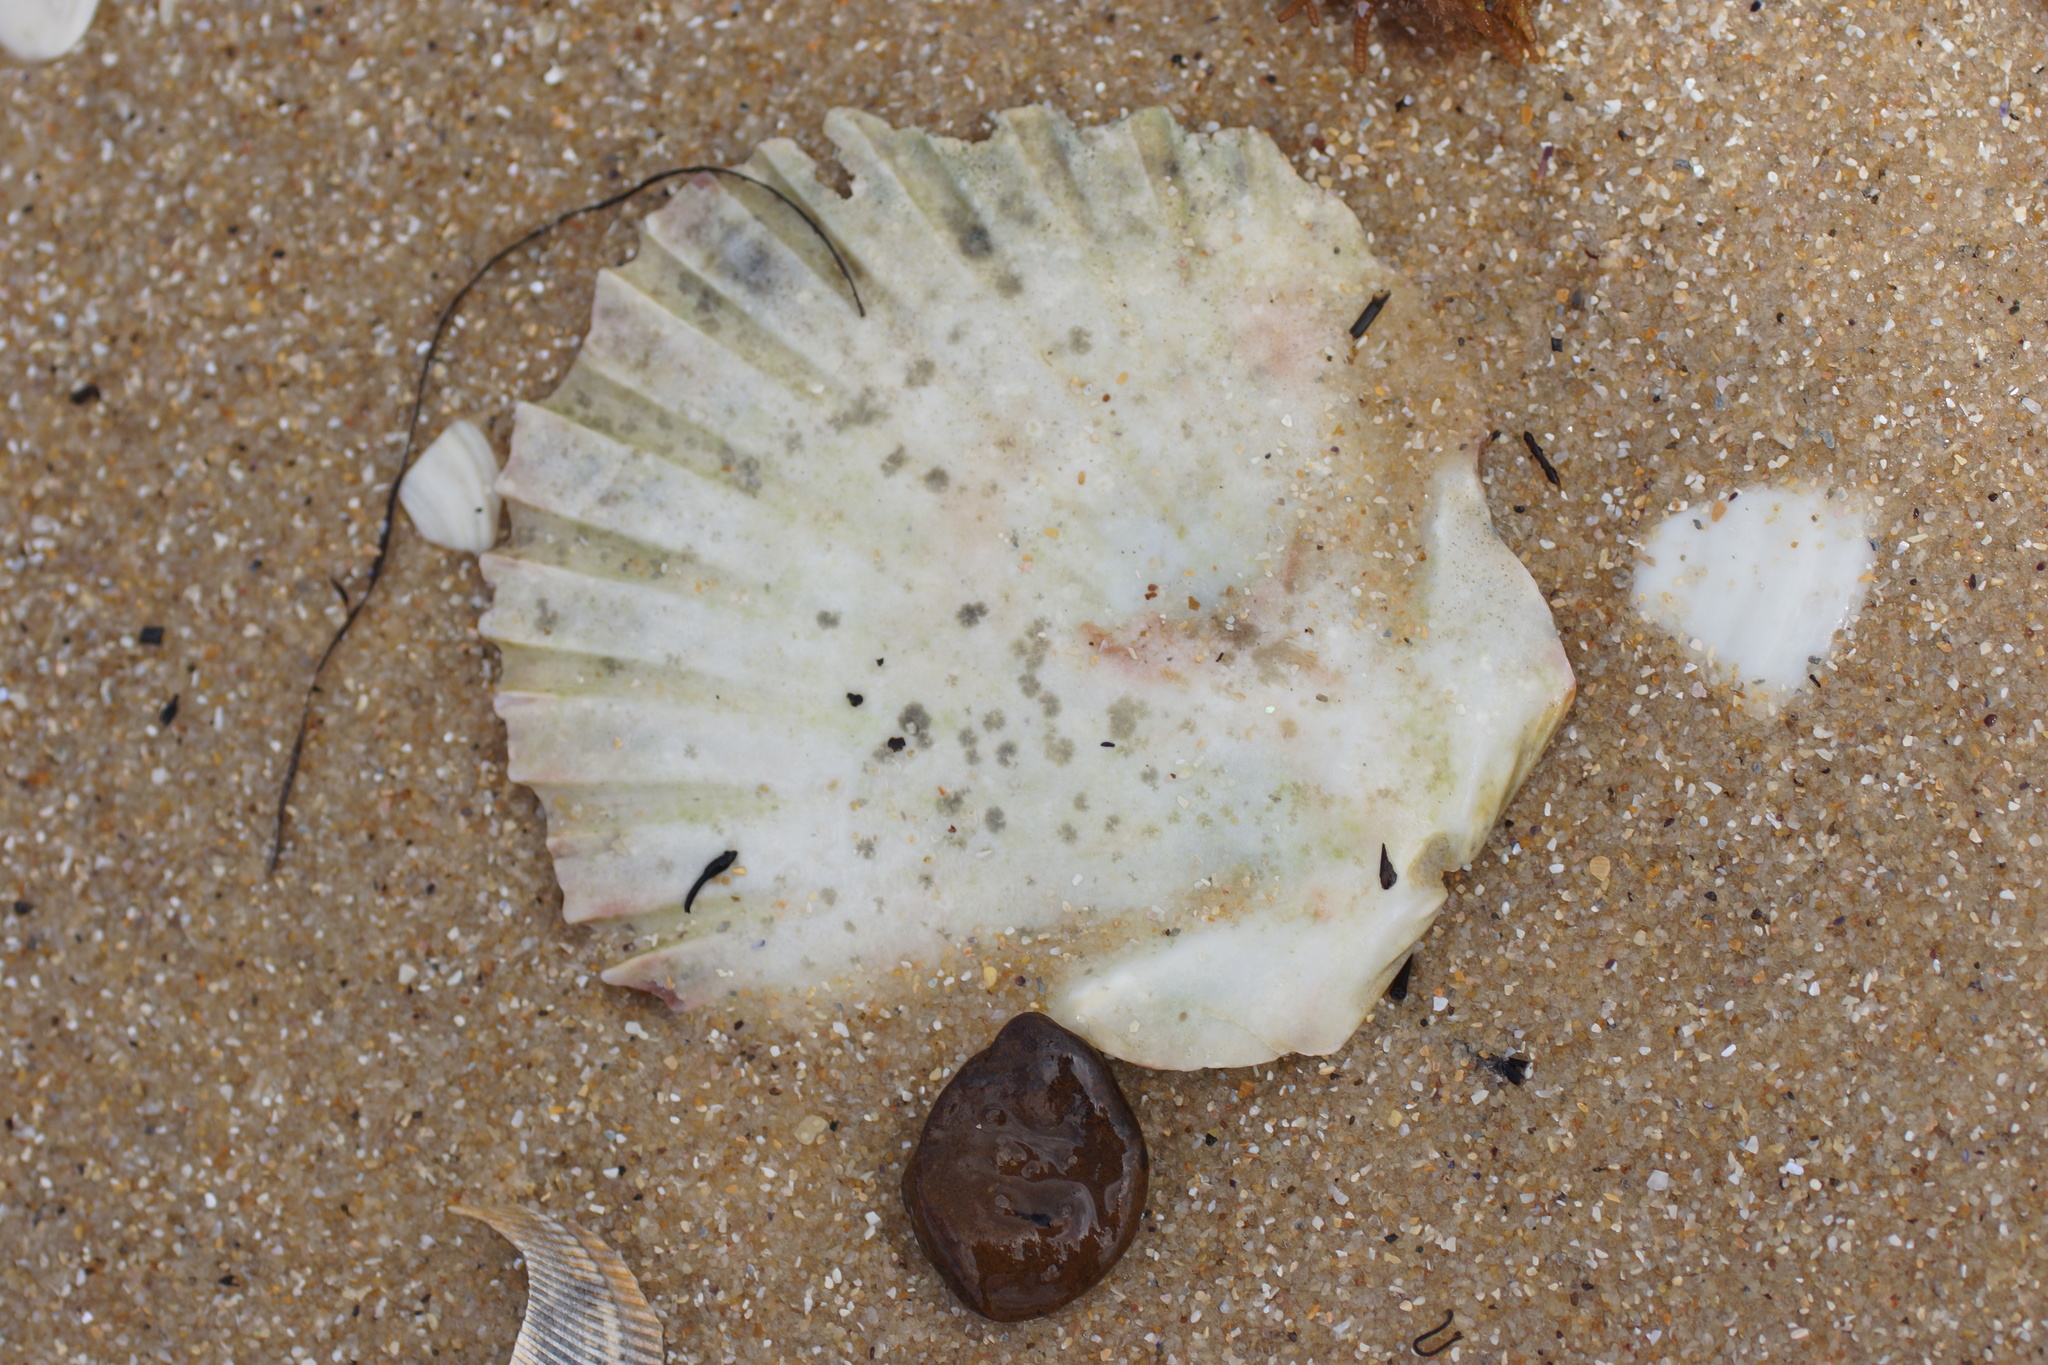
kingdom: Animalia
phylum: Mollusca
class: Bivalvia
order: Pectinida
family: Pectinidae
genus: Pecten
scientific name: Pecten fumatus
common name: Australian scallop
